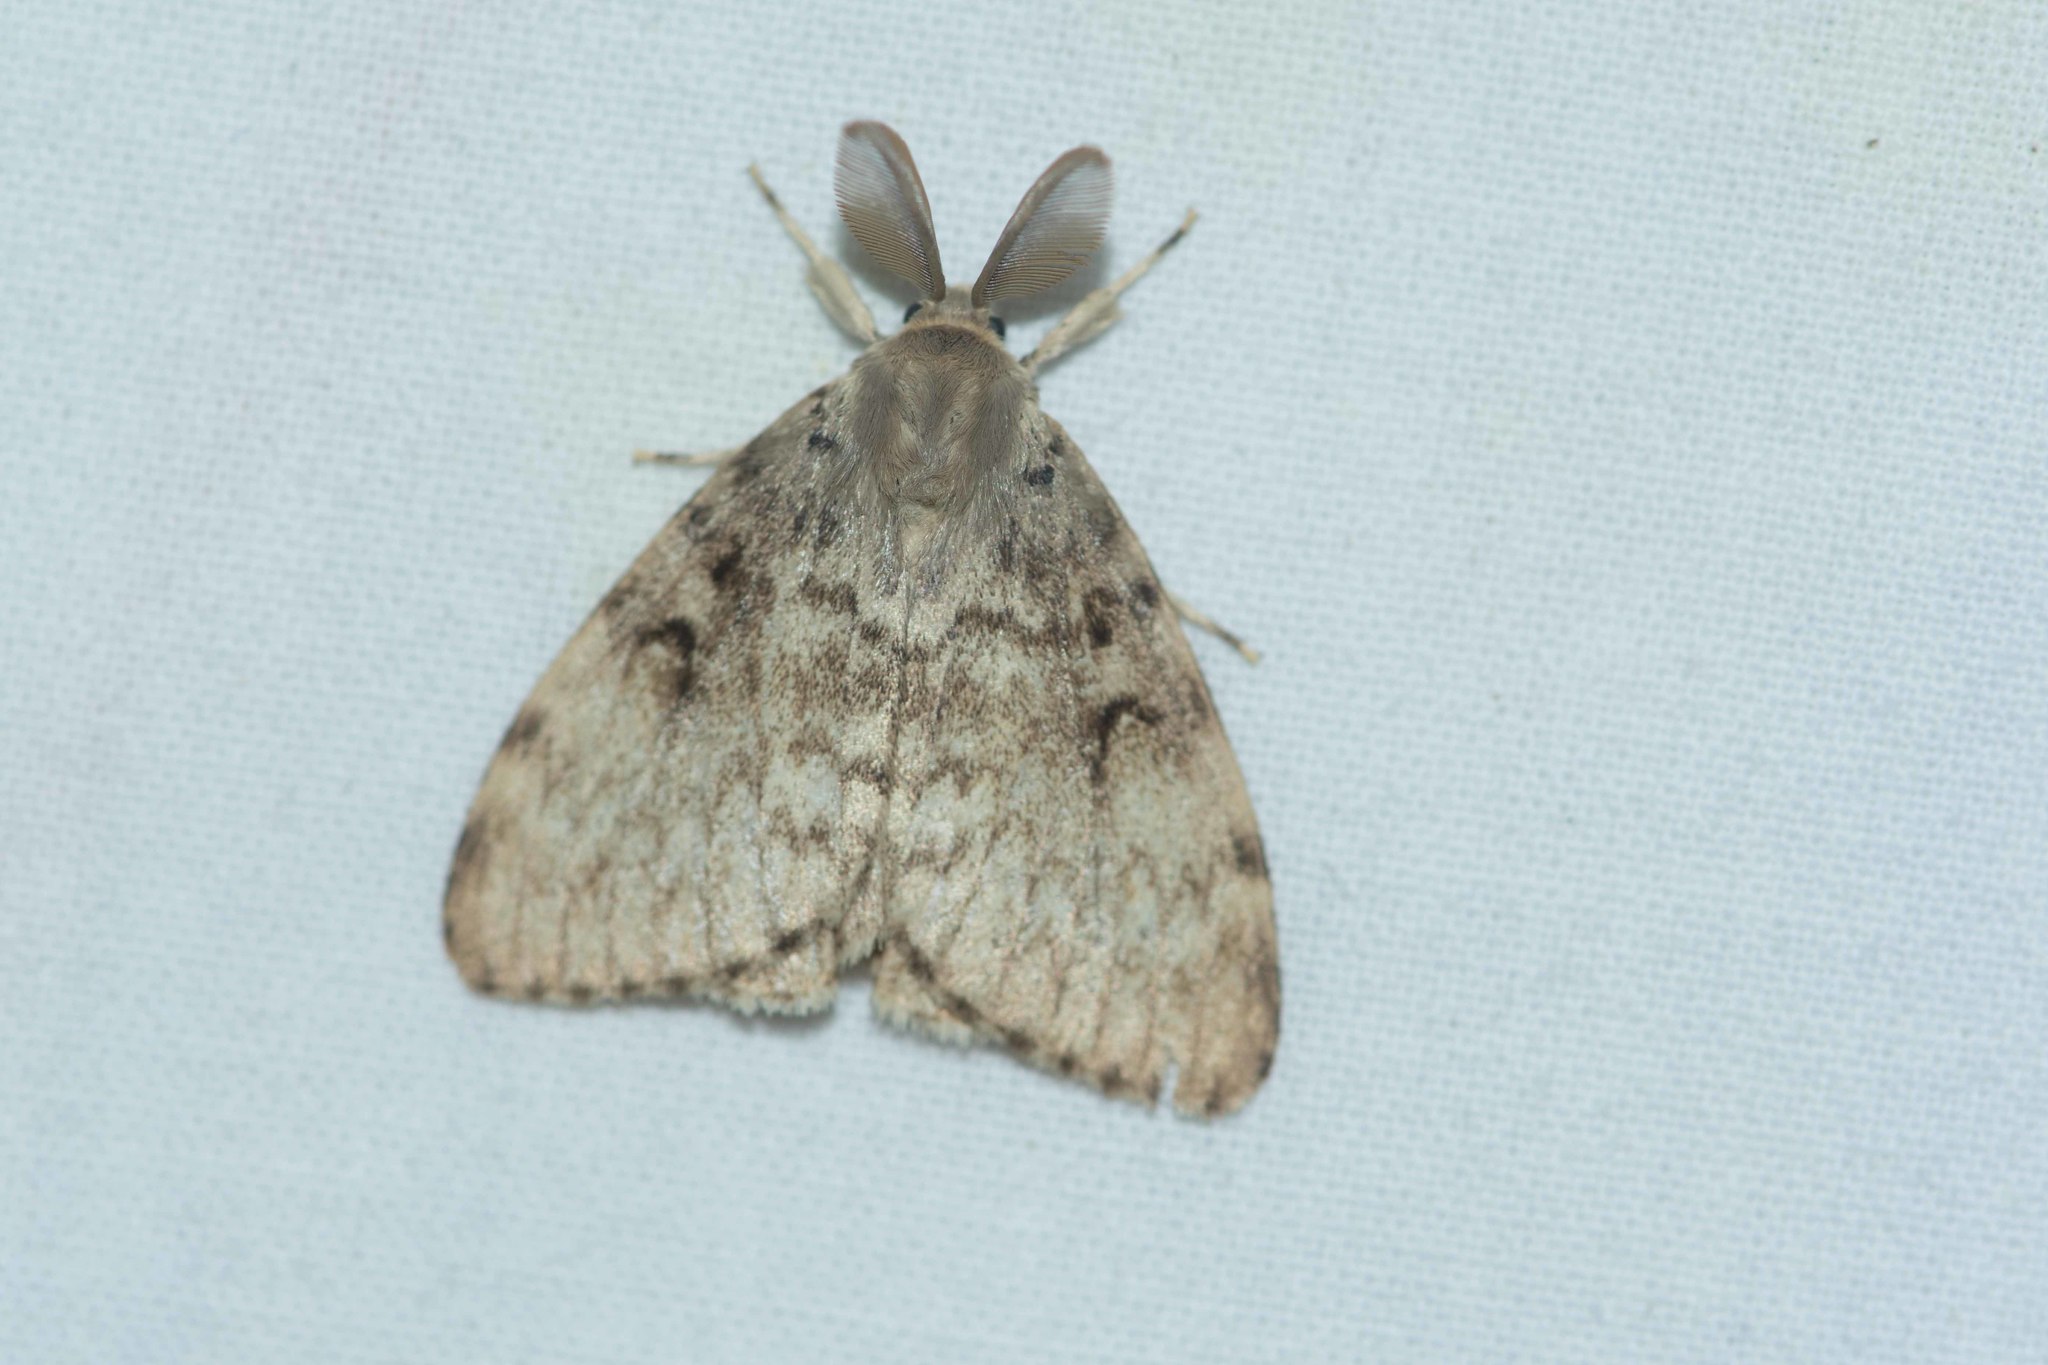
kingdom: Animalia
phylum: Arthropoda
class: Insecta
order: Lepidoptera
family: Erebidae
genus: Lymantria
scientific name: Lymantria dispar
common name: Gypsy moth
